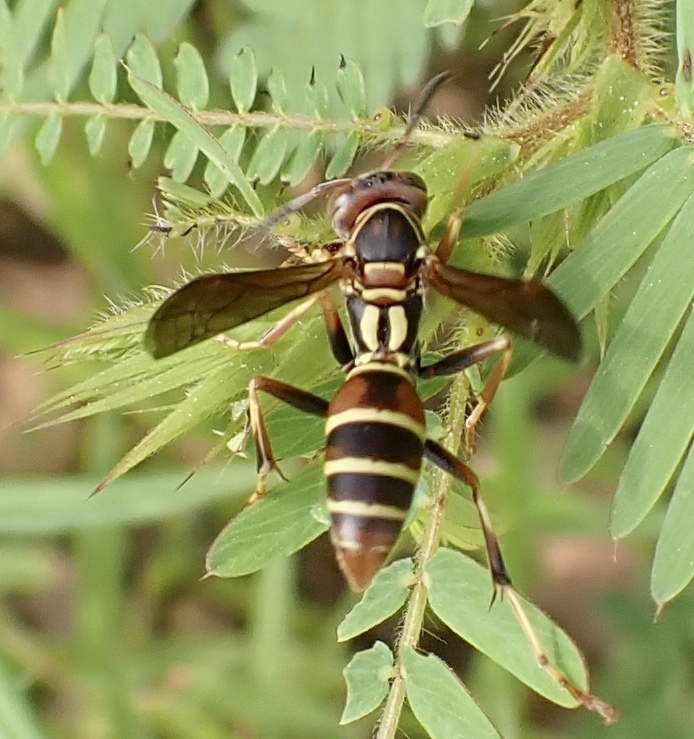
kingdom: Animalia
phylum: Arthropoda
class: Insecta
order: Hymenoptera
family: Eumenidae
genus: Polistes
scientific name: Polistes dorsalis
